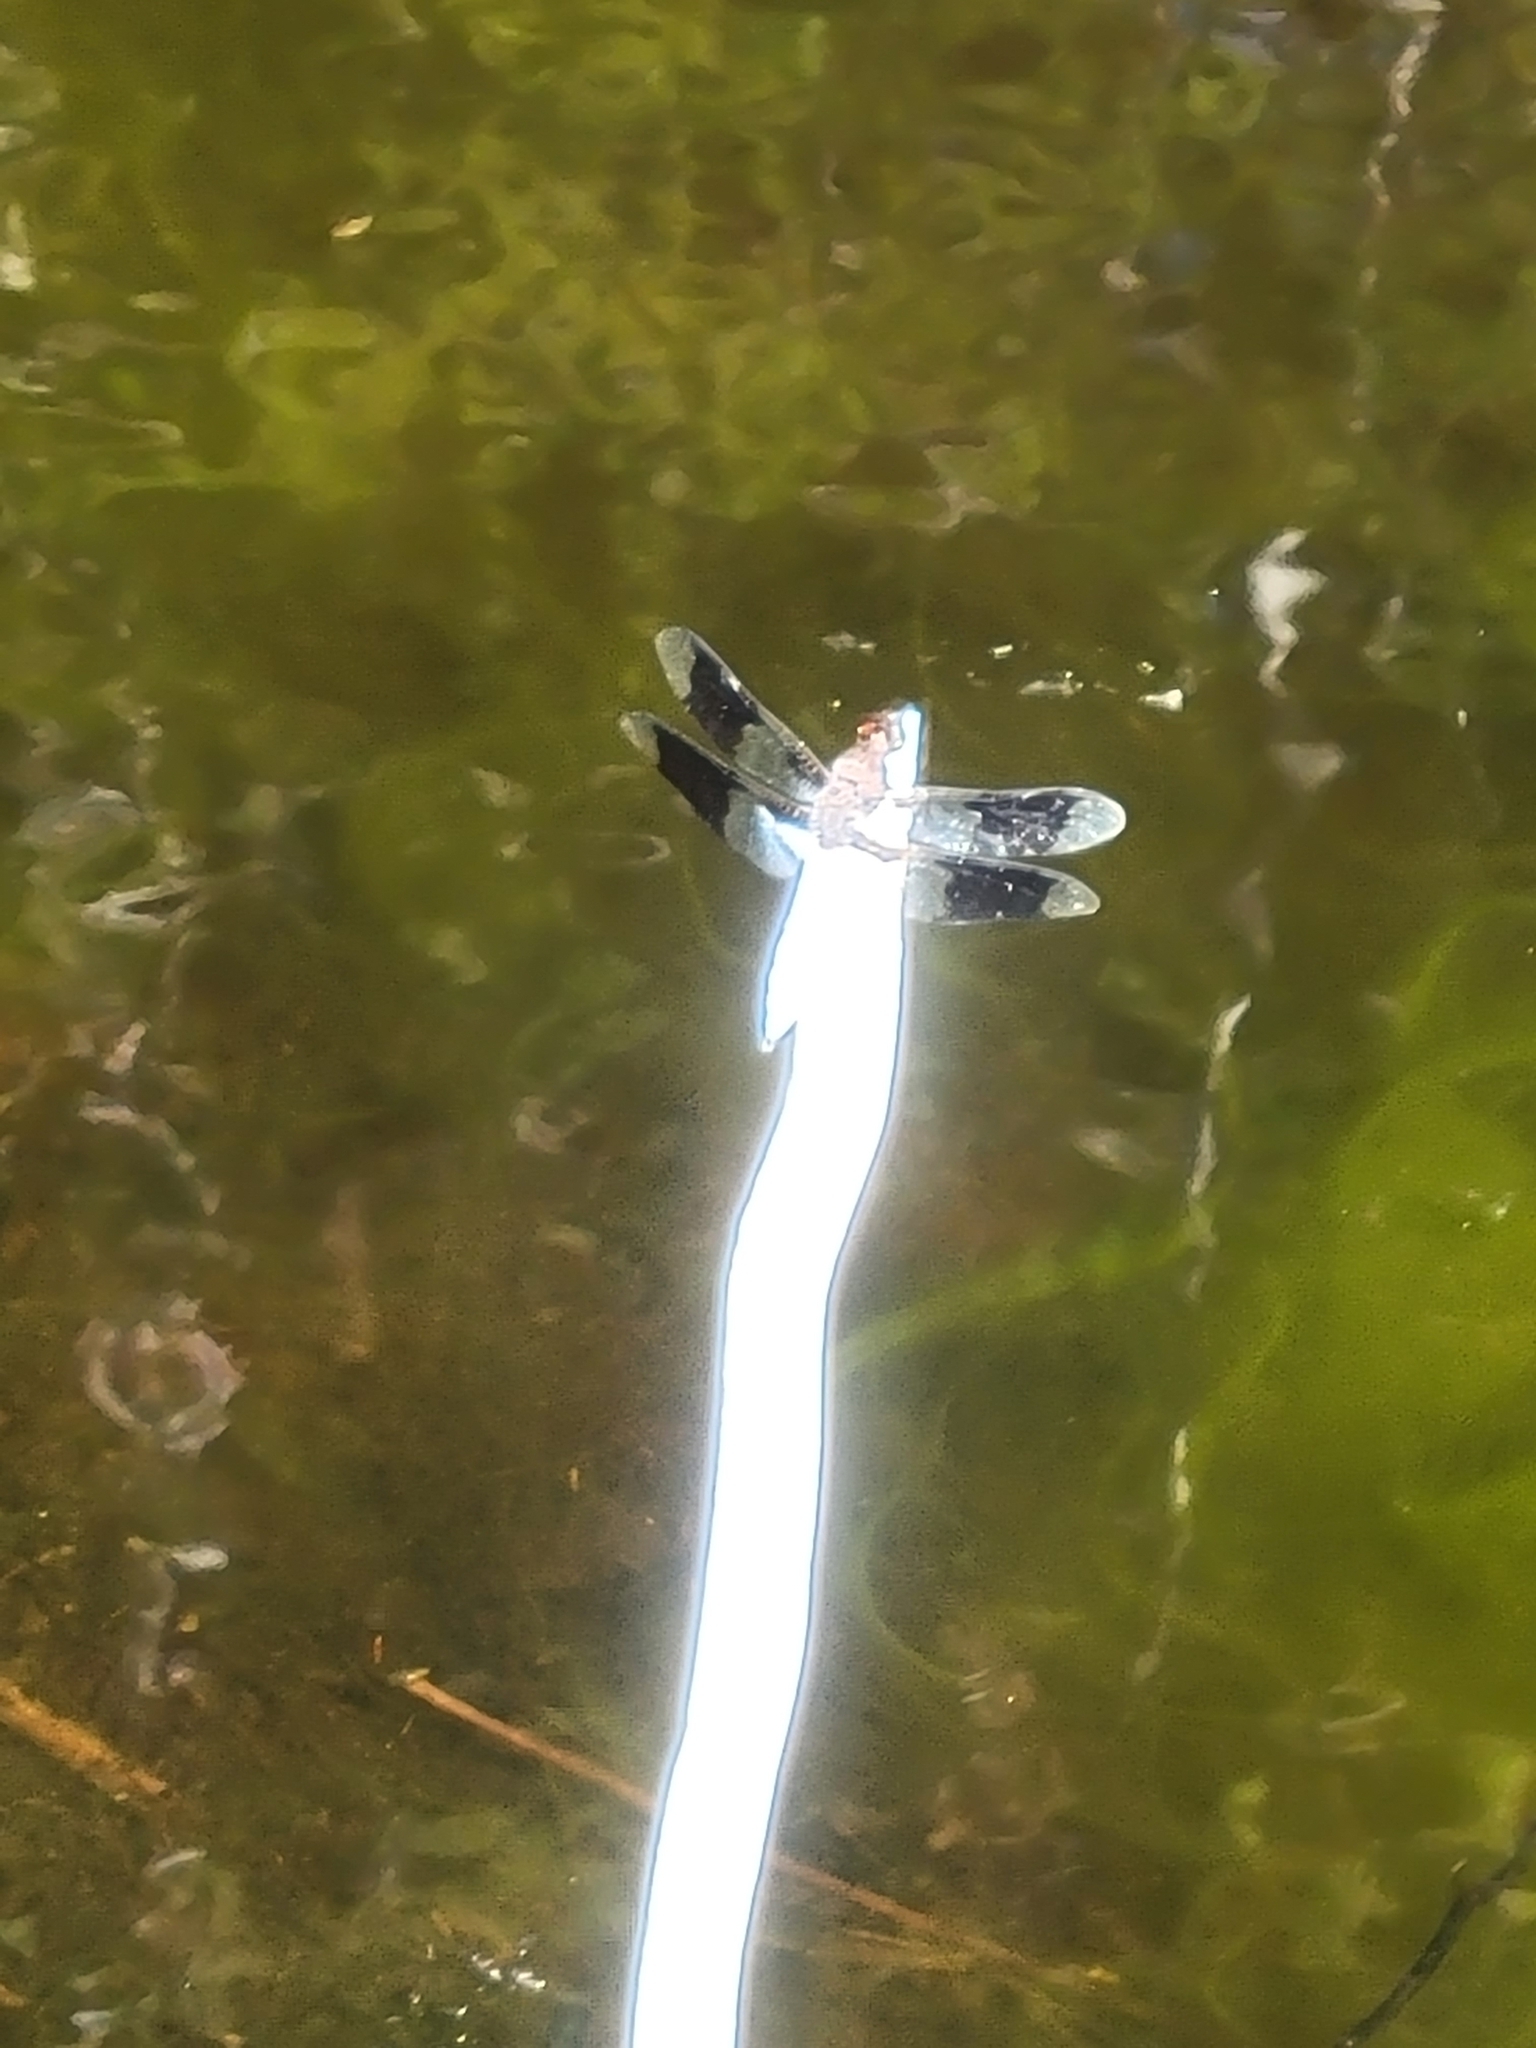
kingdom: Animalia
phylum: Arthropoda
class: Insecta
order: Odonata
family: Libellulidae
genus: Plathemis
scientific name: Plathemis lydia
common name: Common whitetail
